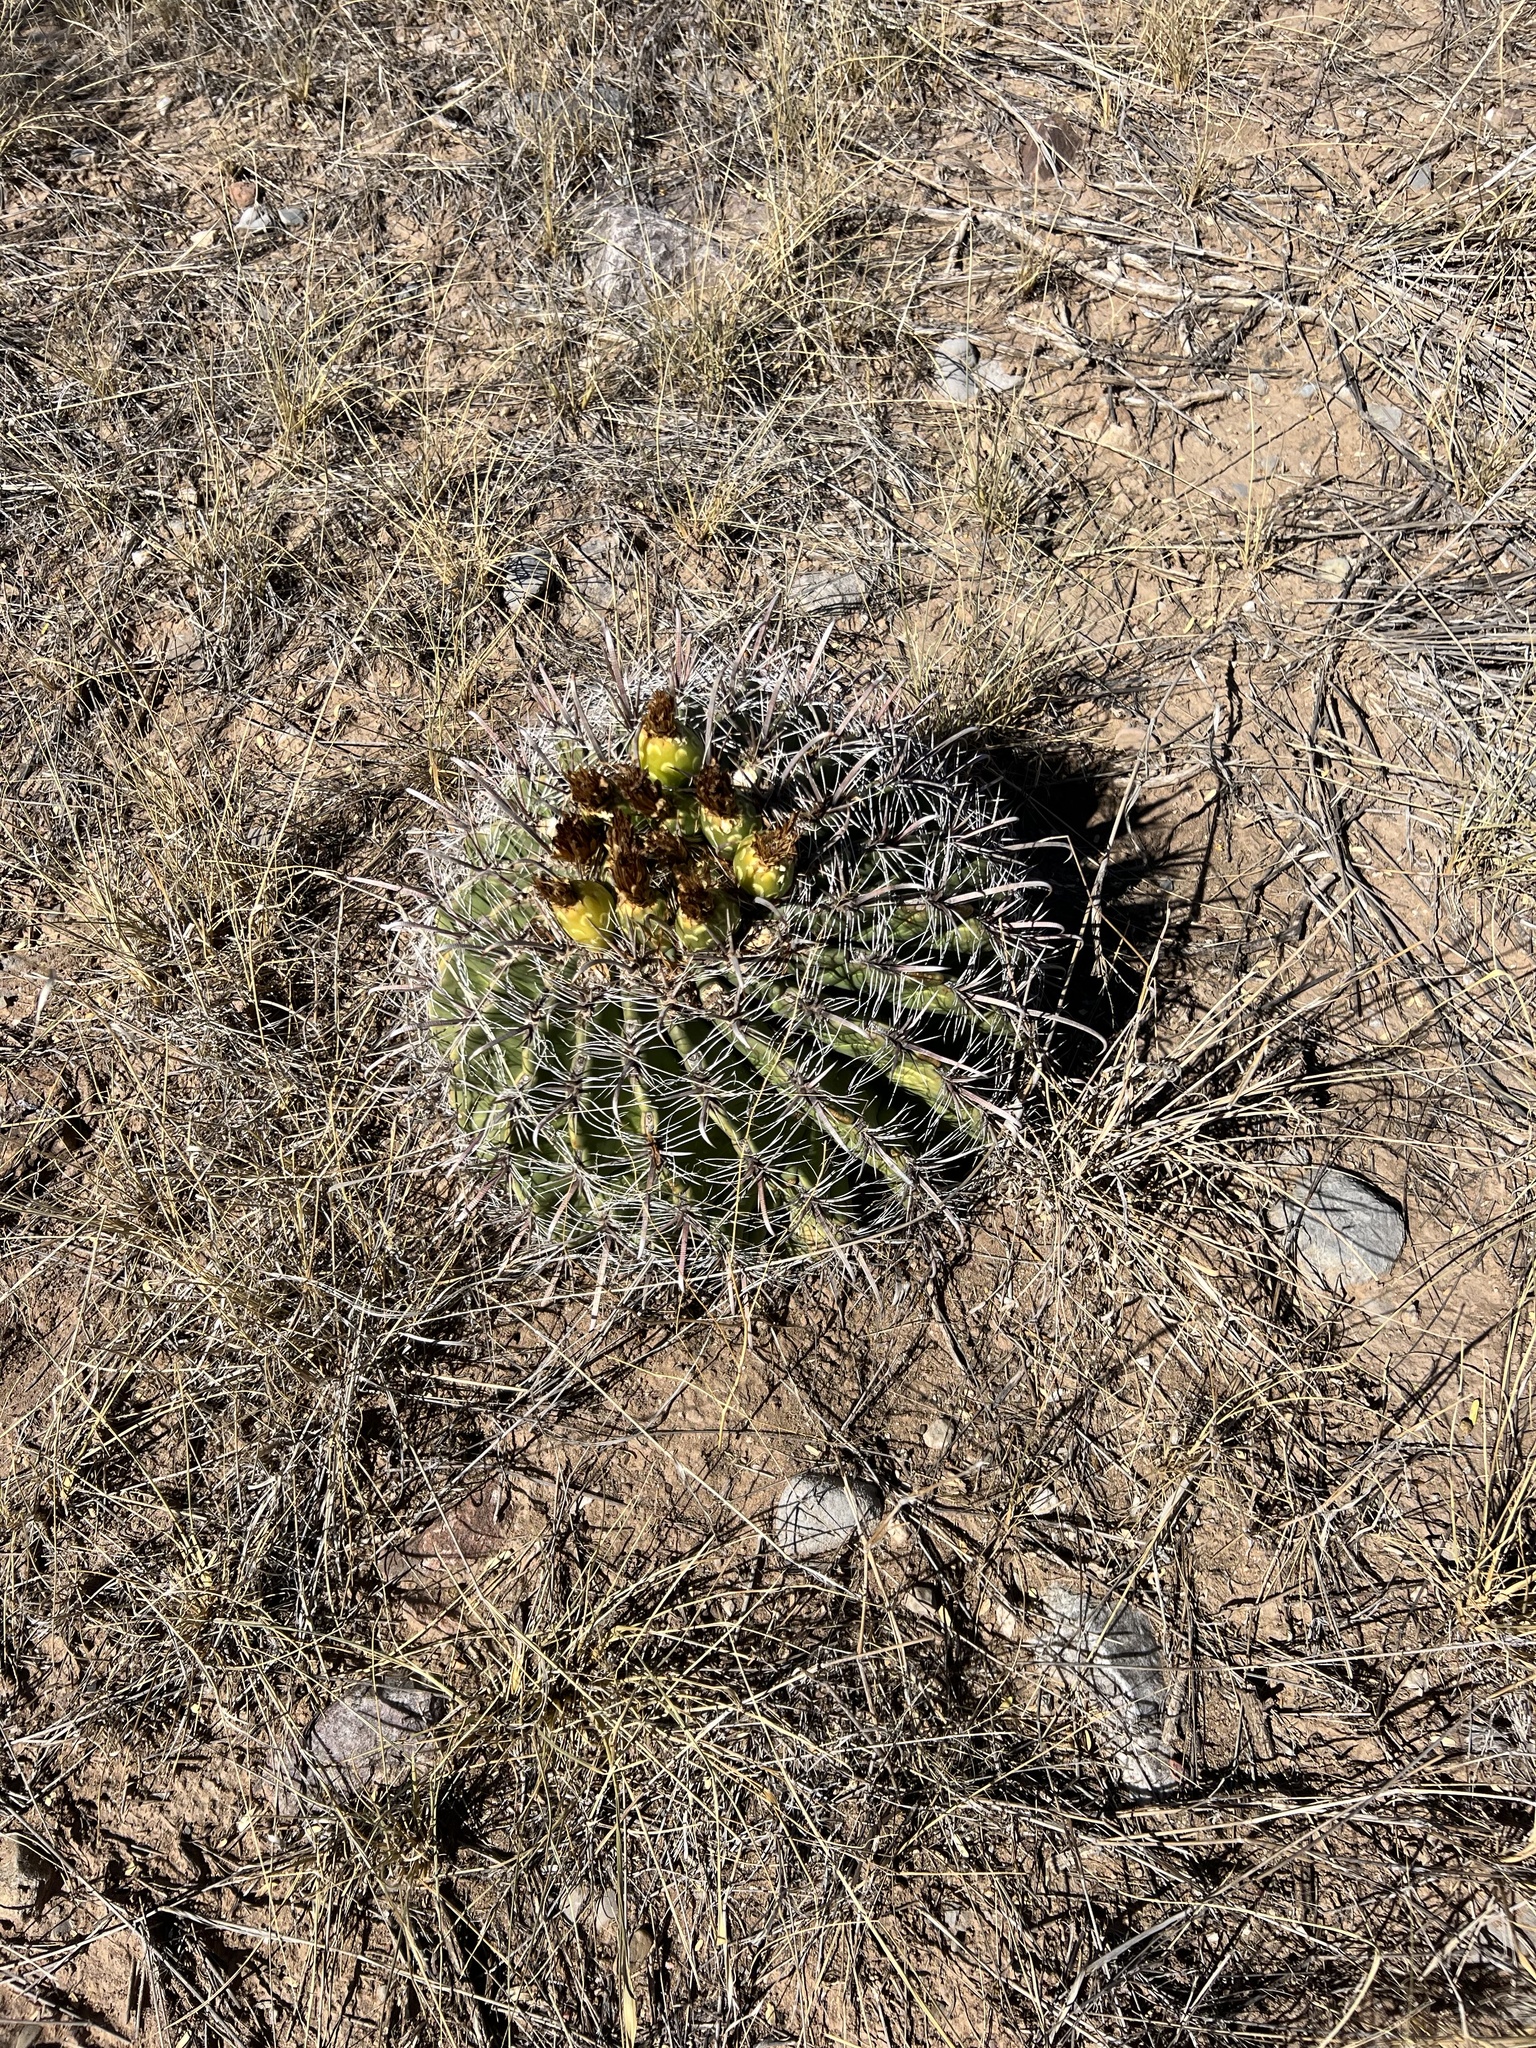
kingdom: Plantae
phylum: Tracheophyta
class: Magnoliopsida
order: Caryophyllales
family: Cactaceae
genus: Ferocactus
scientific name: Ferocactus wislizeni
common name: Candy barrel cactus
